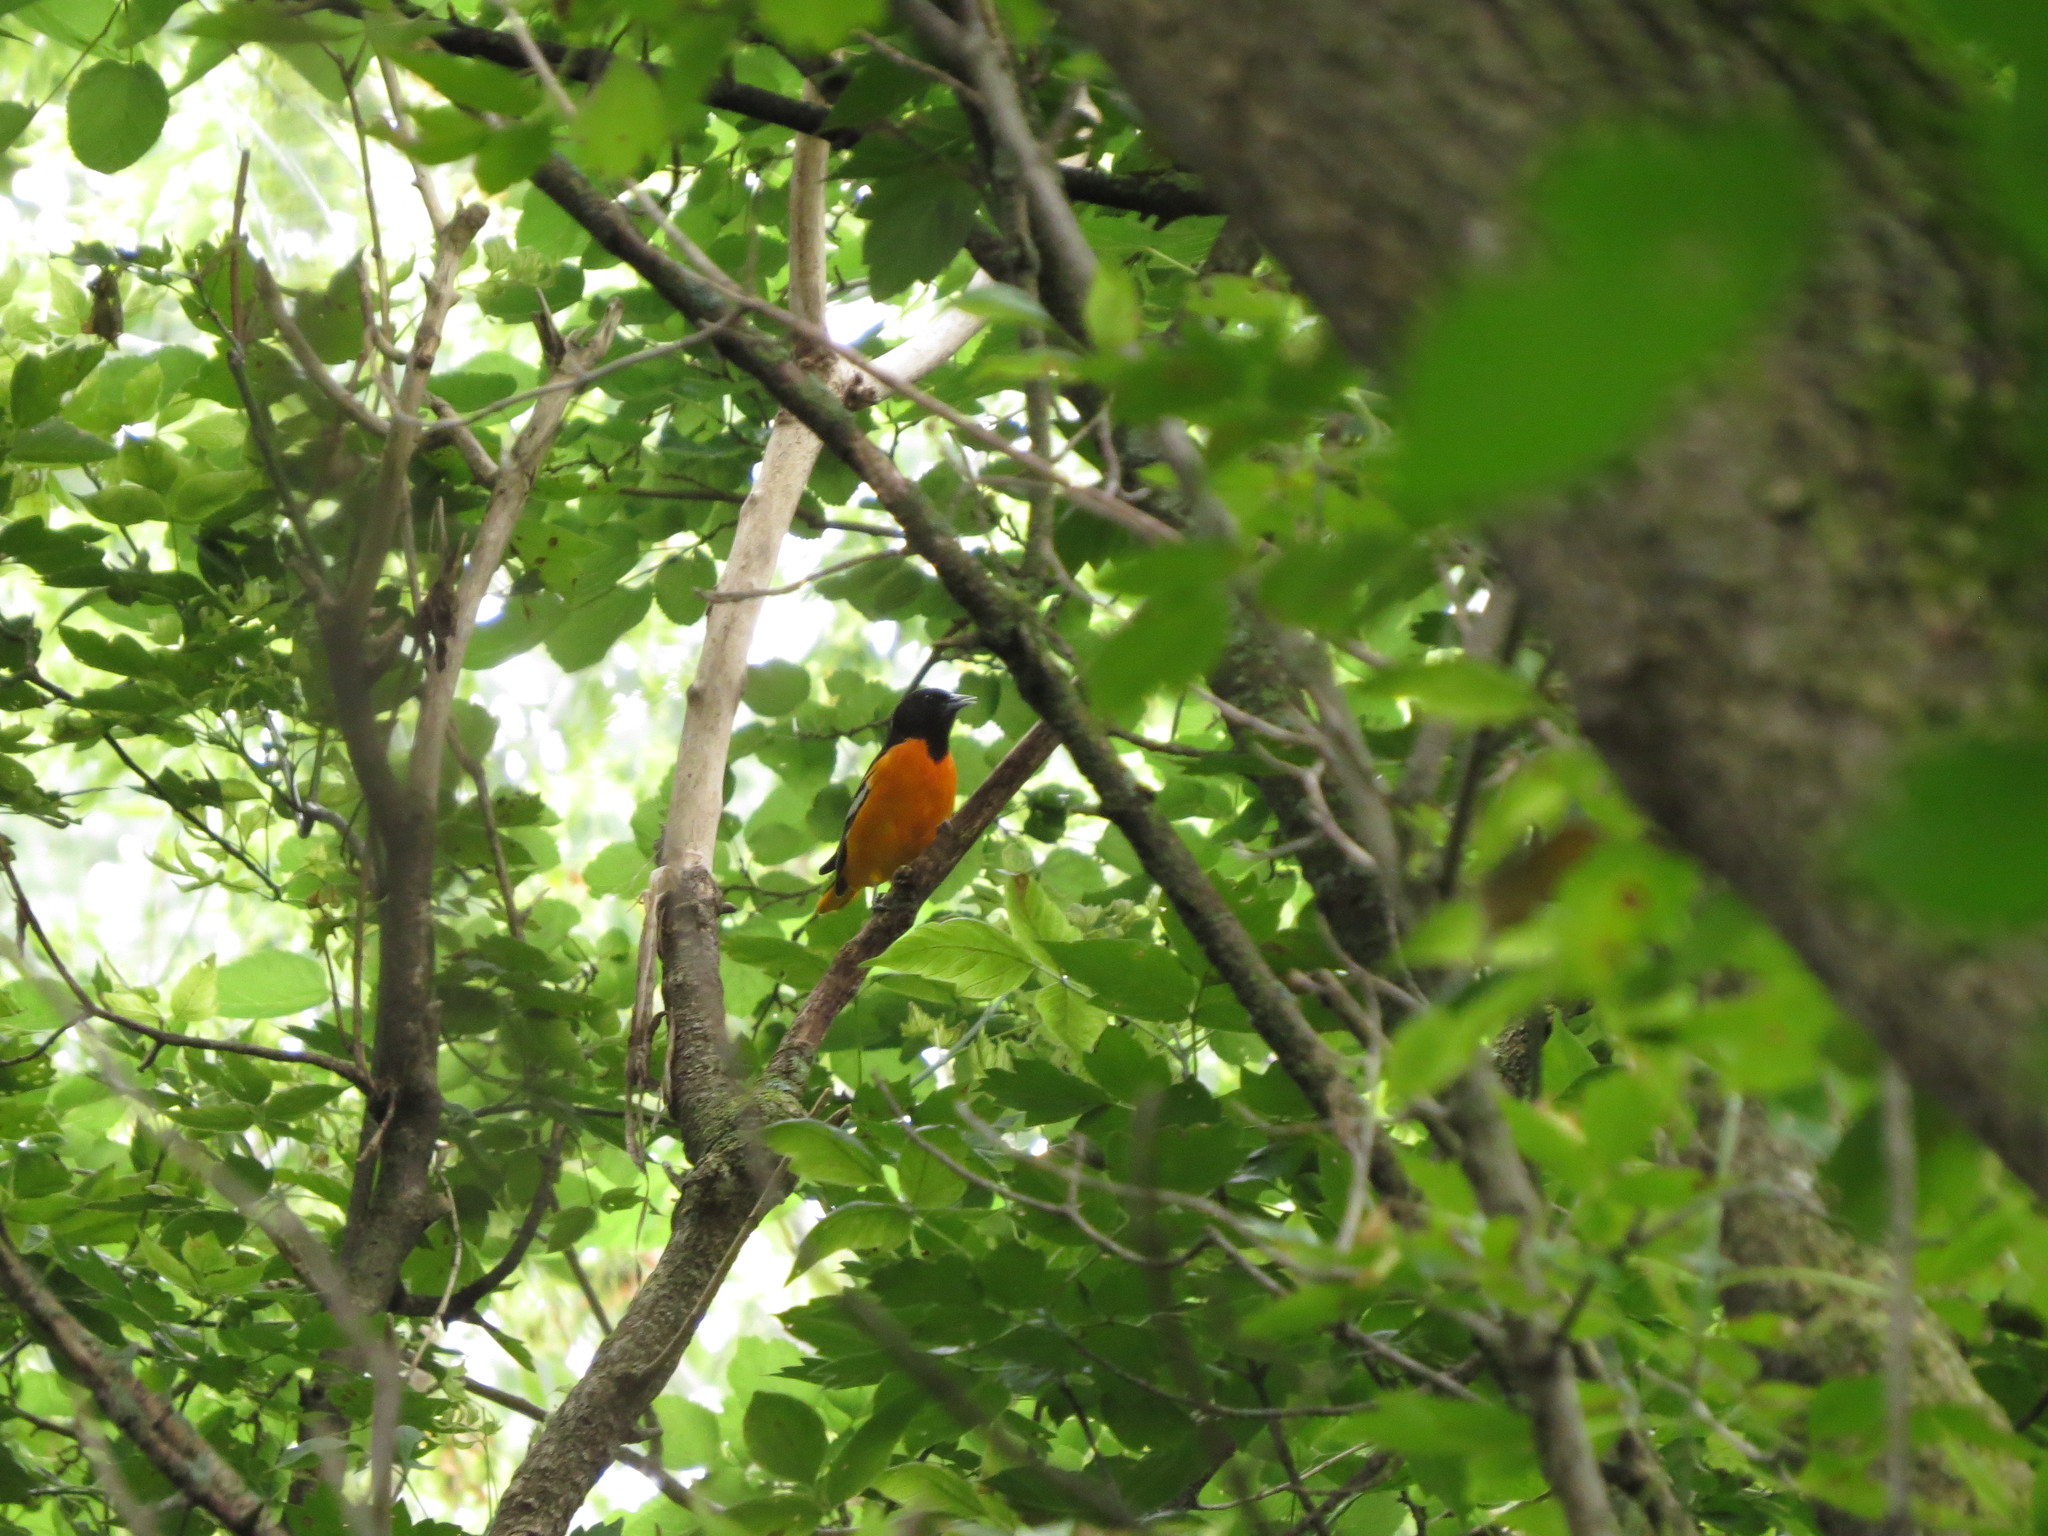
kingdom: Animalia
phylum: Chordata
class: Aves
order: Passeriformes
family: Icteridae
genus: Icterus
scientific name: Icterus galbula
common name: Baltimore oriole
